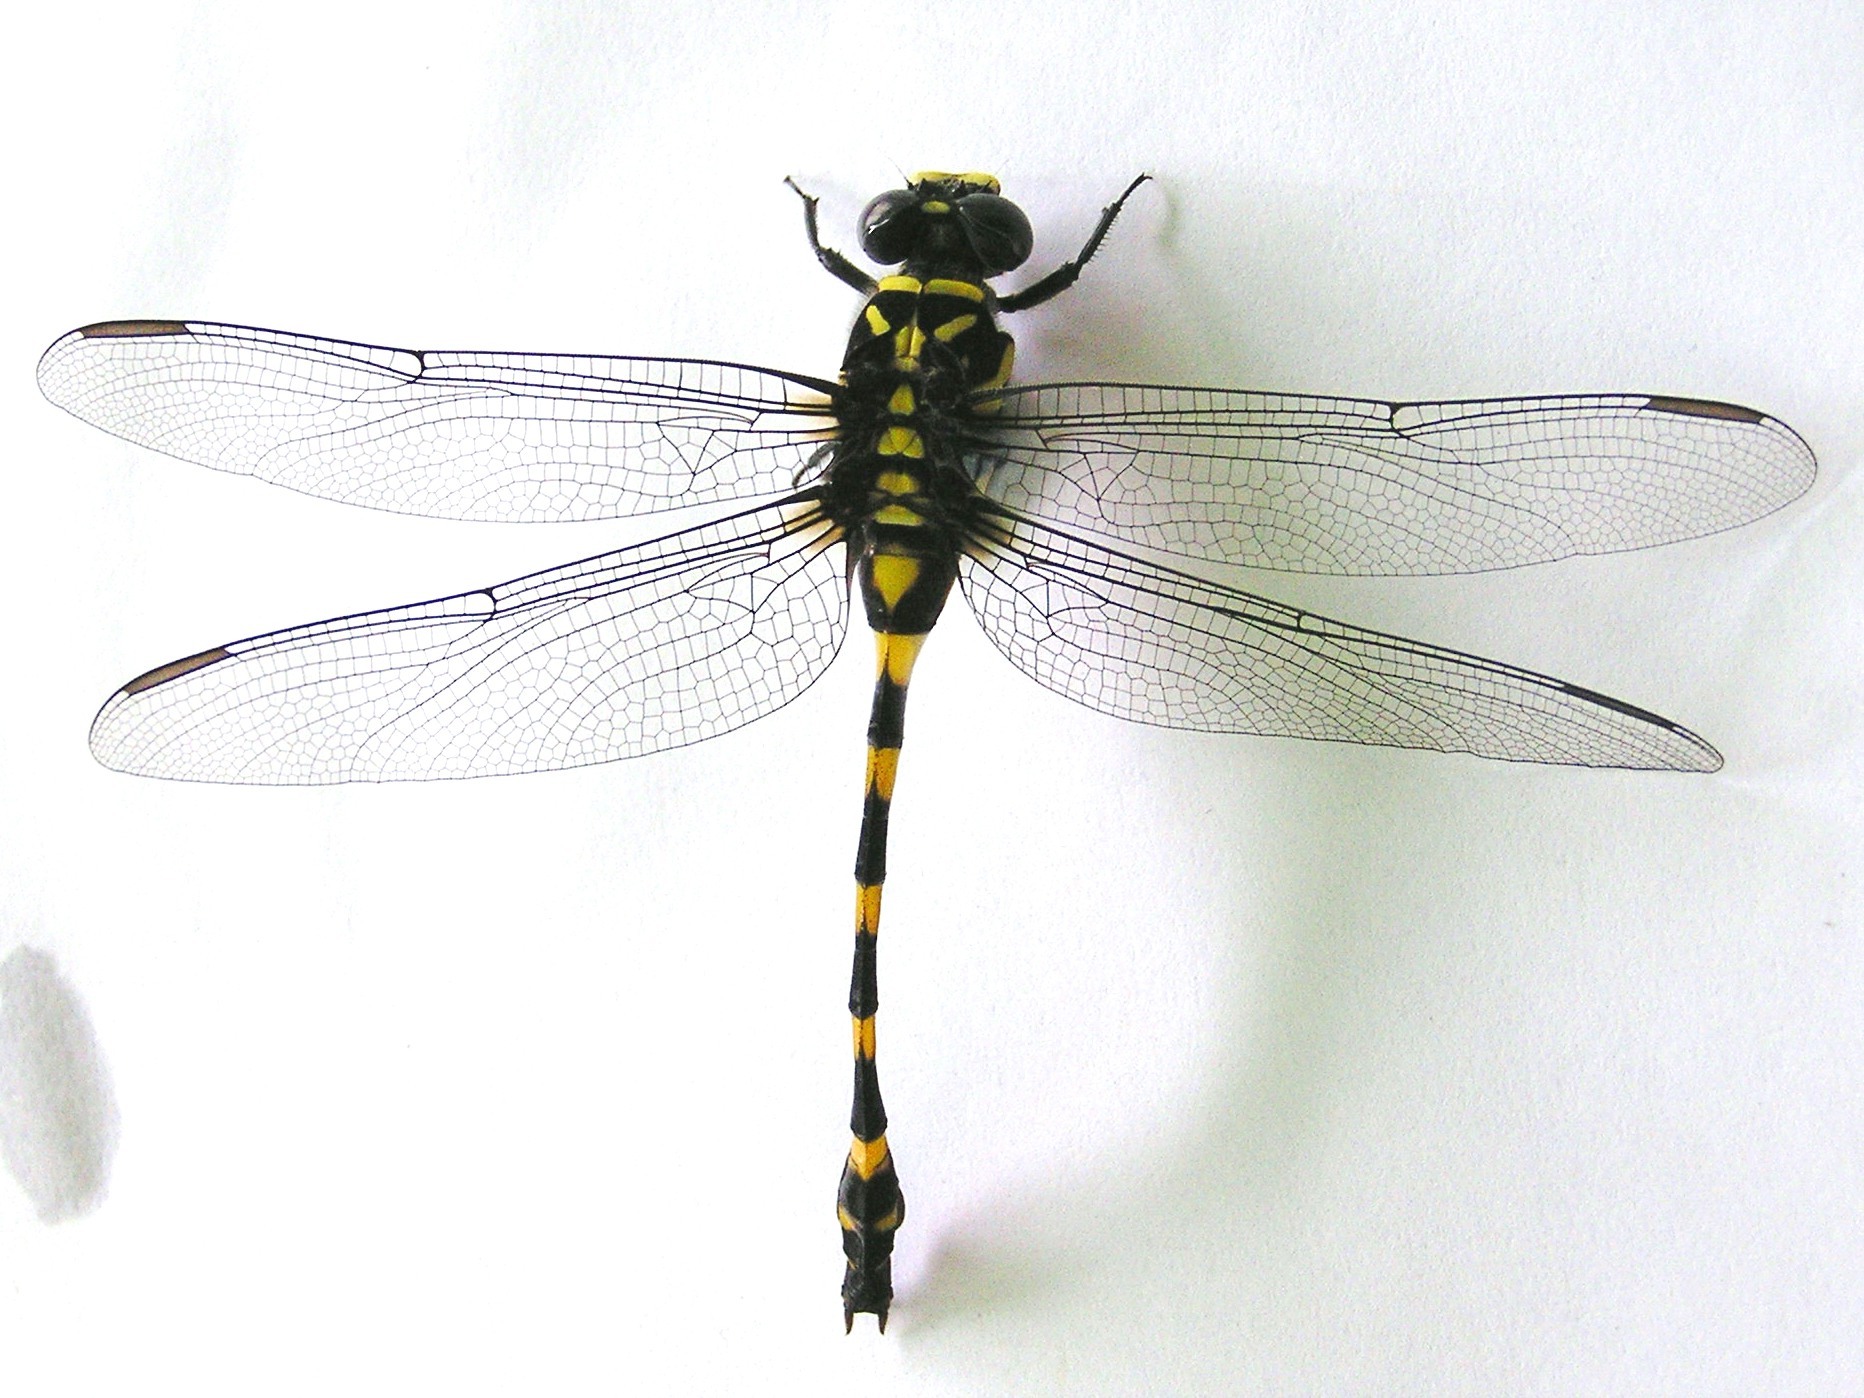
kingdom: Animalia
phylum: Arthropoda
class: Insecta
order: Odonata
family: Gomphidae
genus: Ictinogomphus
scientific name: Ictinogomphus decoratus
